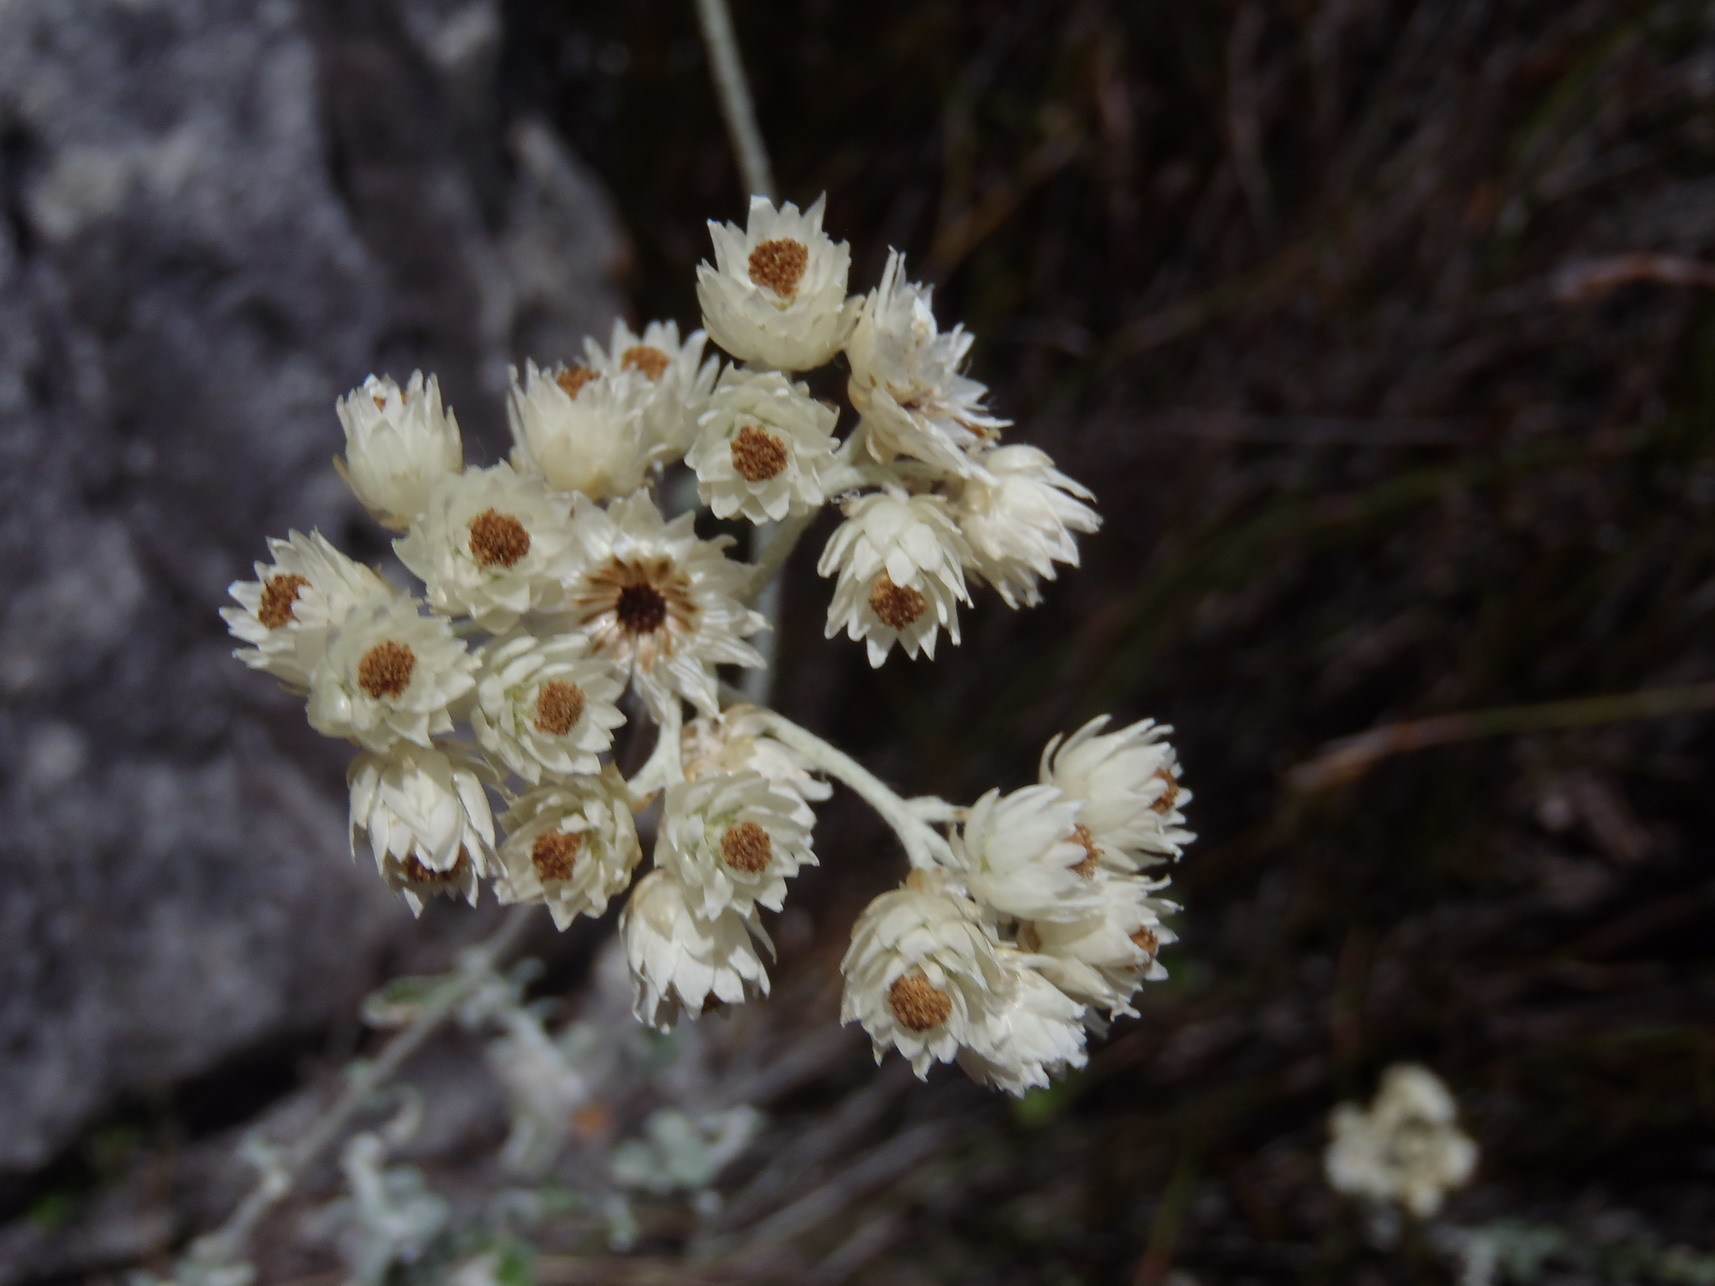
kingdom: Plantae
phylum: Tracheophyta
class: Magnoliopsida
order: Asterales
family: Asteraceae
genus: Helichrysum
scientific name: Helichrysum pandurifolium
